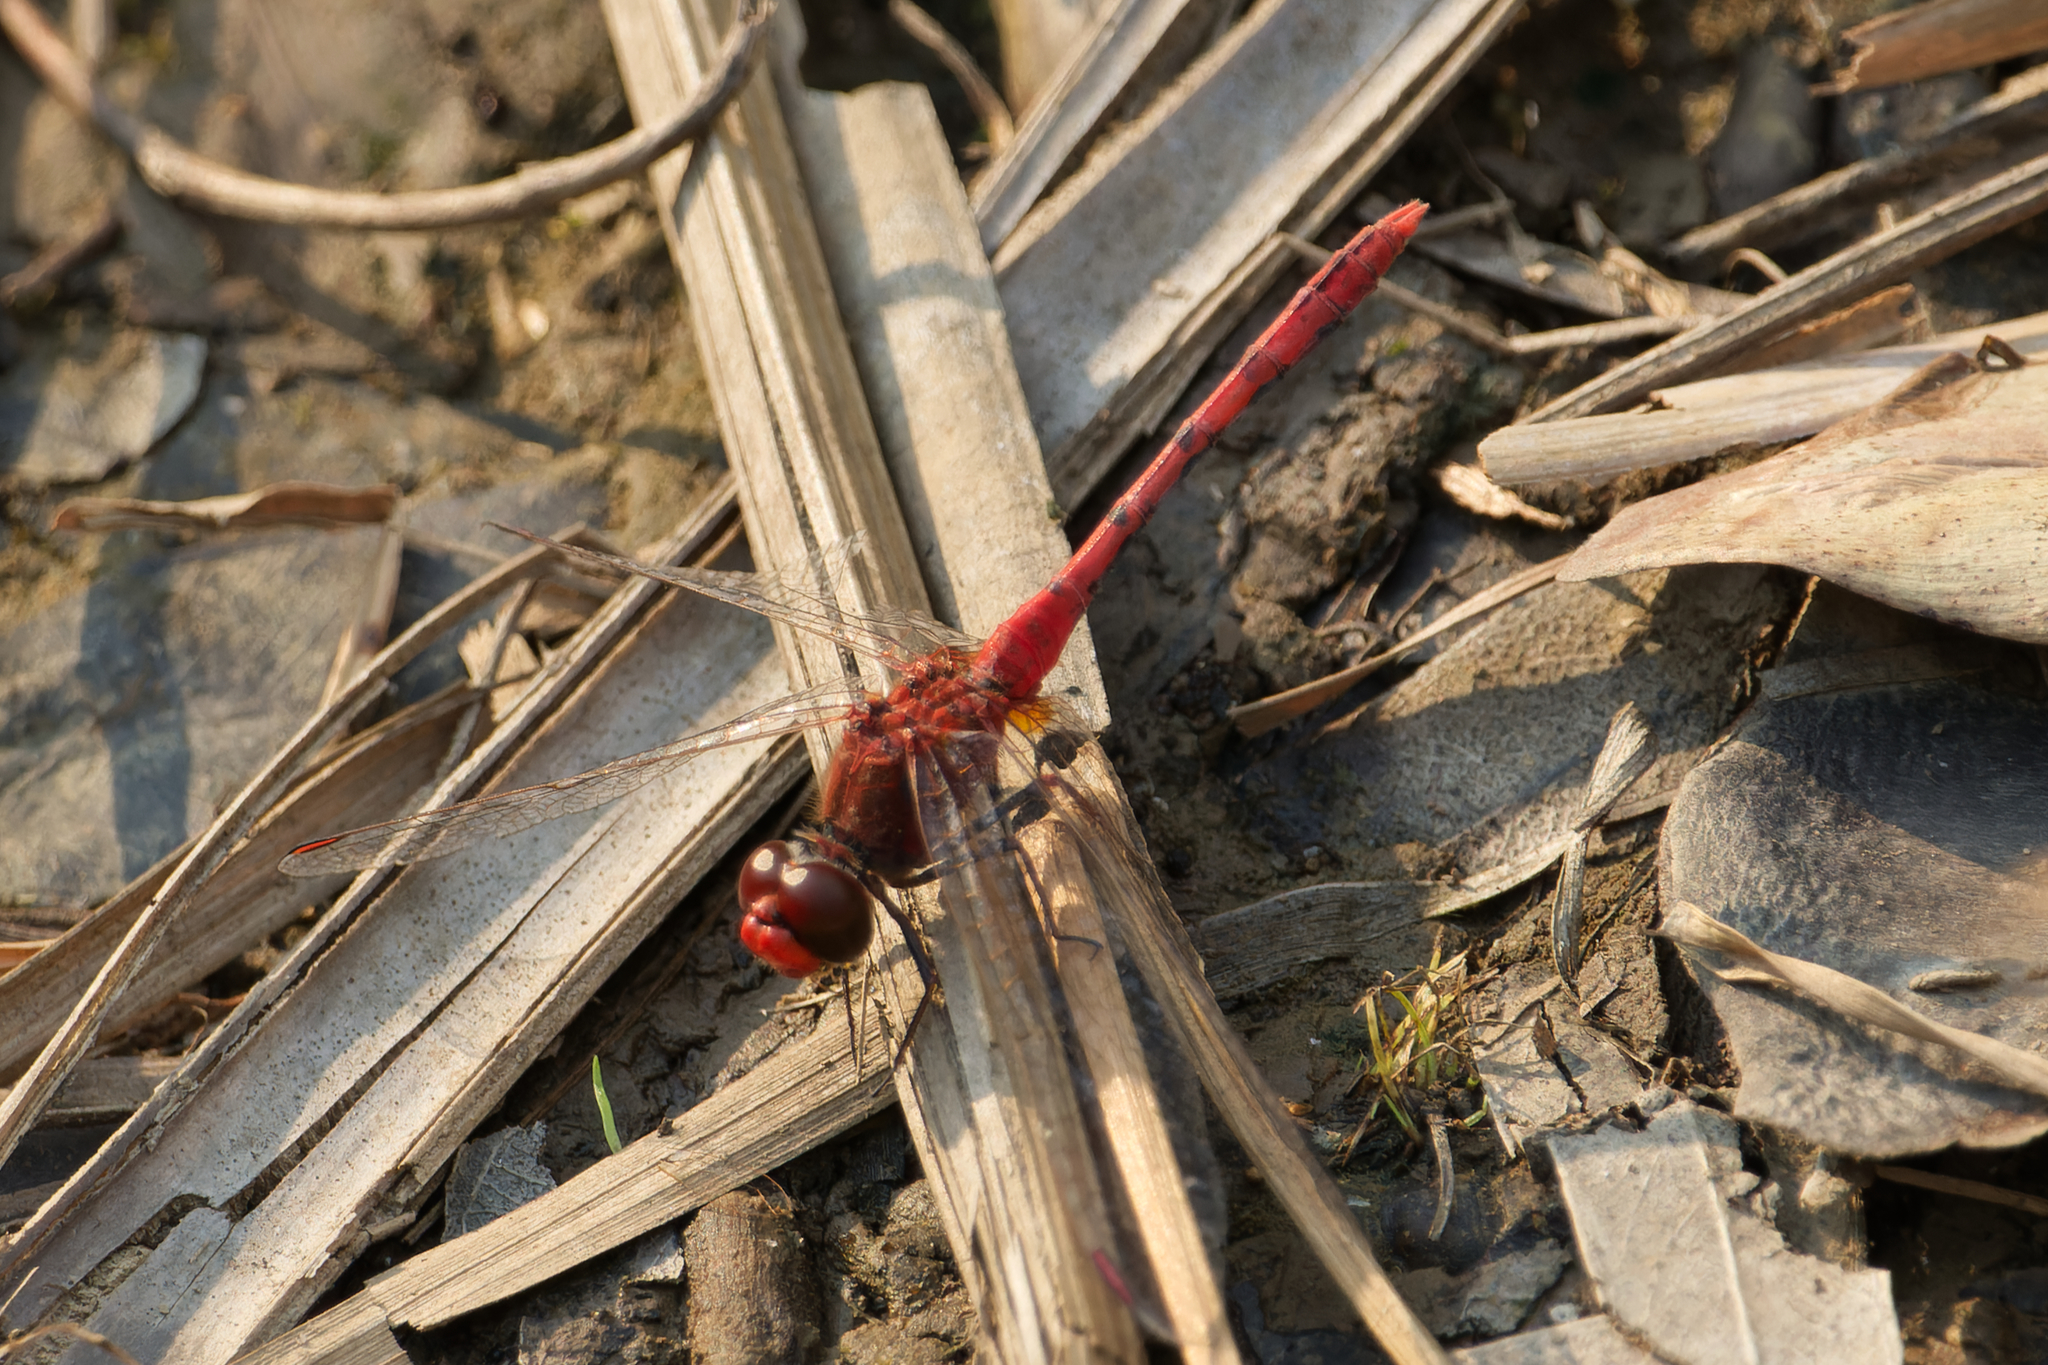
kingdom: Animalia
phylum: Arthropoda
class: Insecta
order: Odonata
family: Libellulidae
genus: Diplacodes
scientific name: Diplacodes bipunctata
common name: Red percher dragonfly
